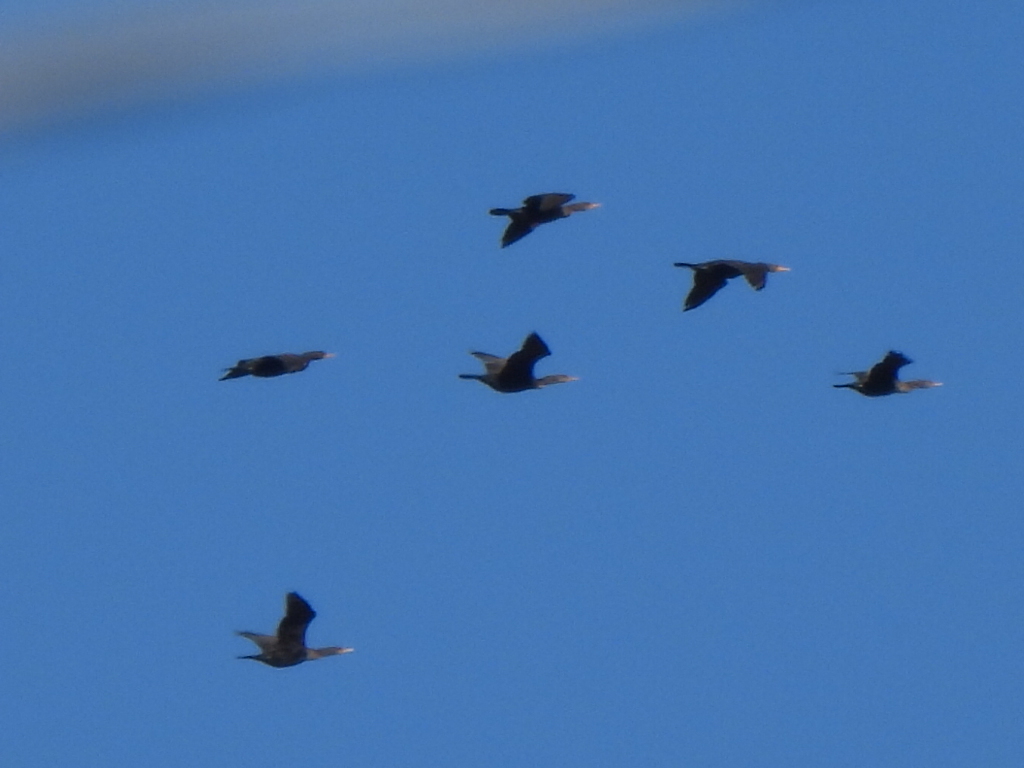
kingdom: Animalia
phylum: Chordata
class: Aves
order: Suliformes
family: Phalacrocoracidae
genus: Phalacrocorax
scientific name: Phalacrocorax auritus
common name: Double-crested cormorant
